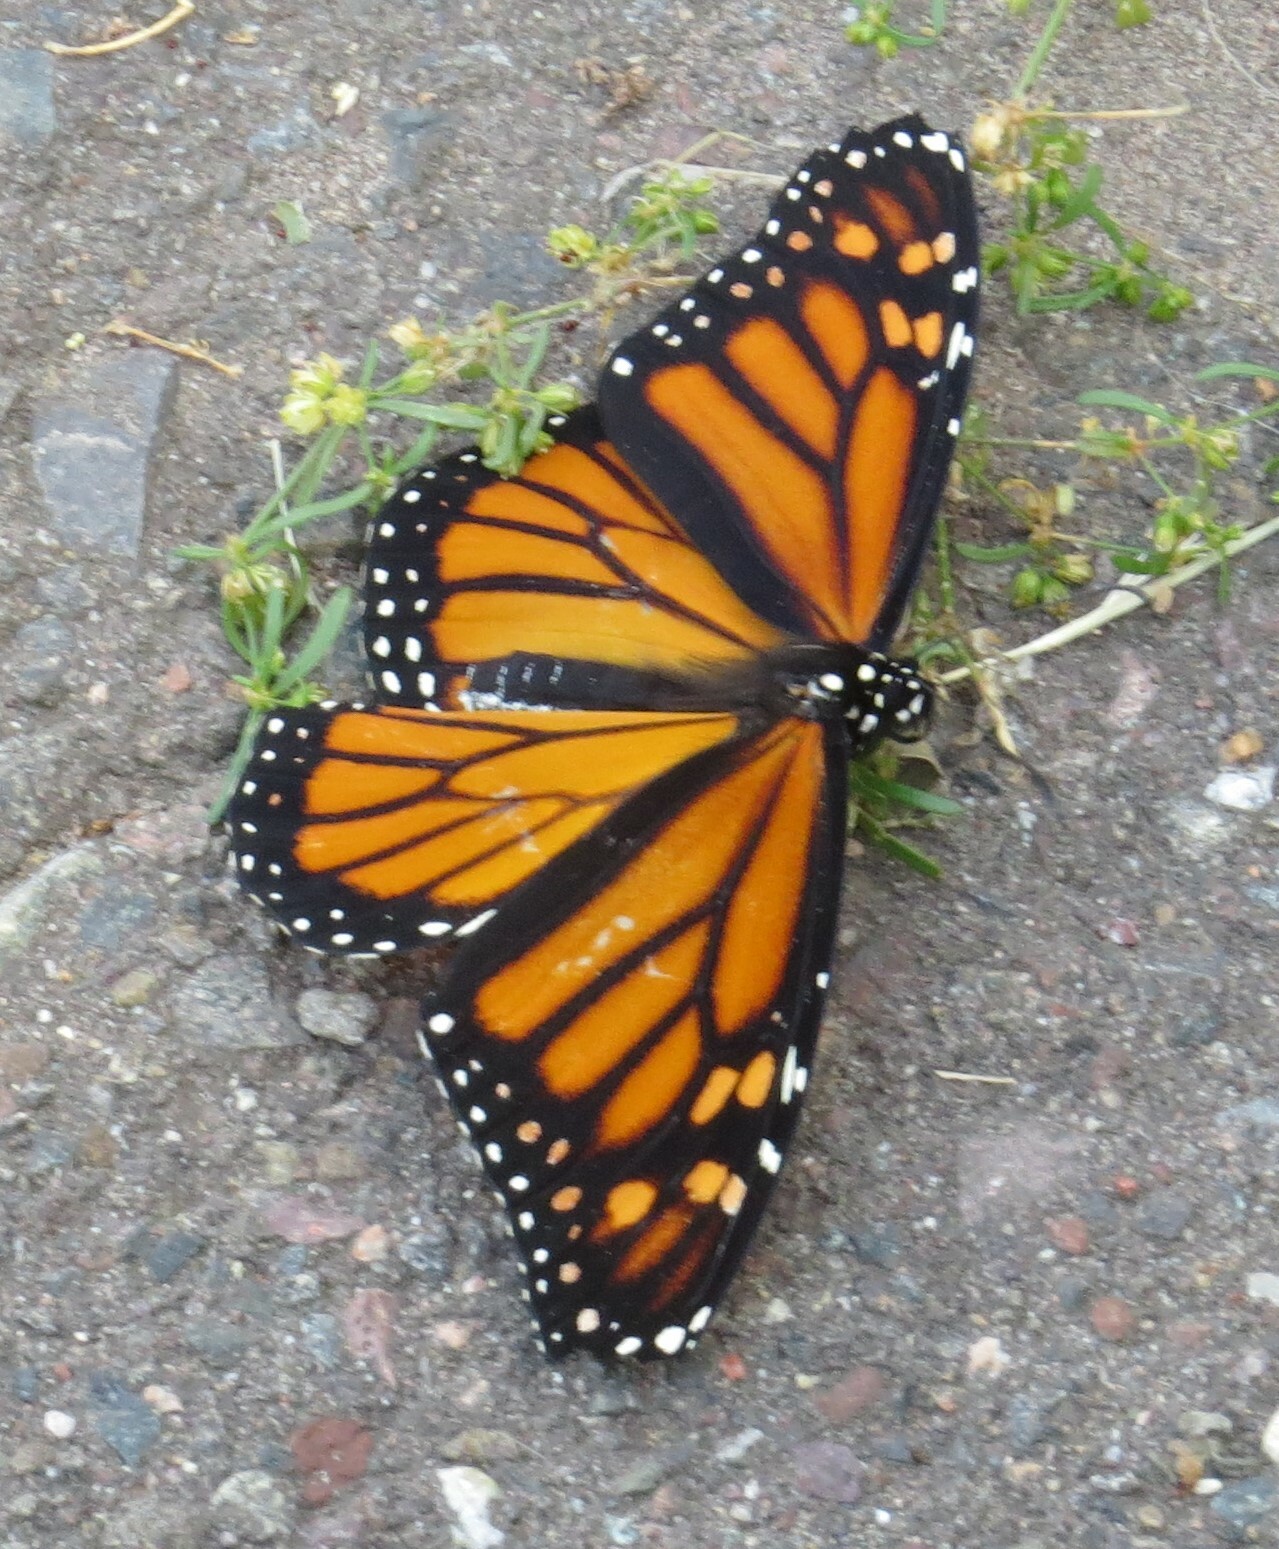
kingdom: Animalia
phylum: Arthropoda
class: Insecta
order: Lepidoptera
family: Nymphalidae
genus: Danaus
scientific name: Danaus plexippus
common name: Monarch
